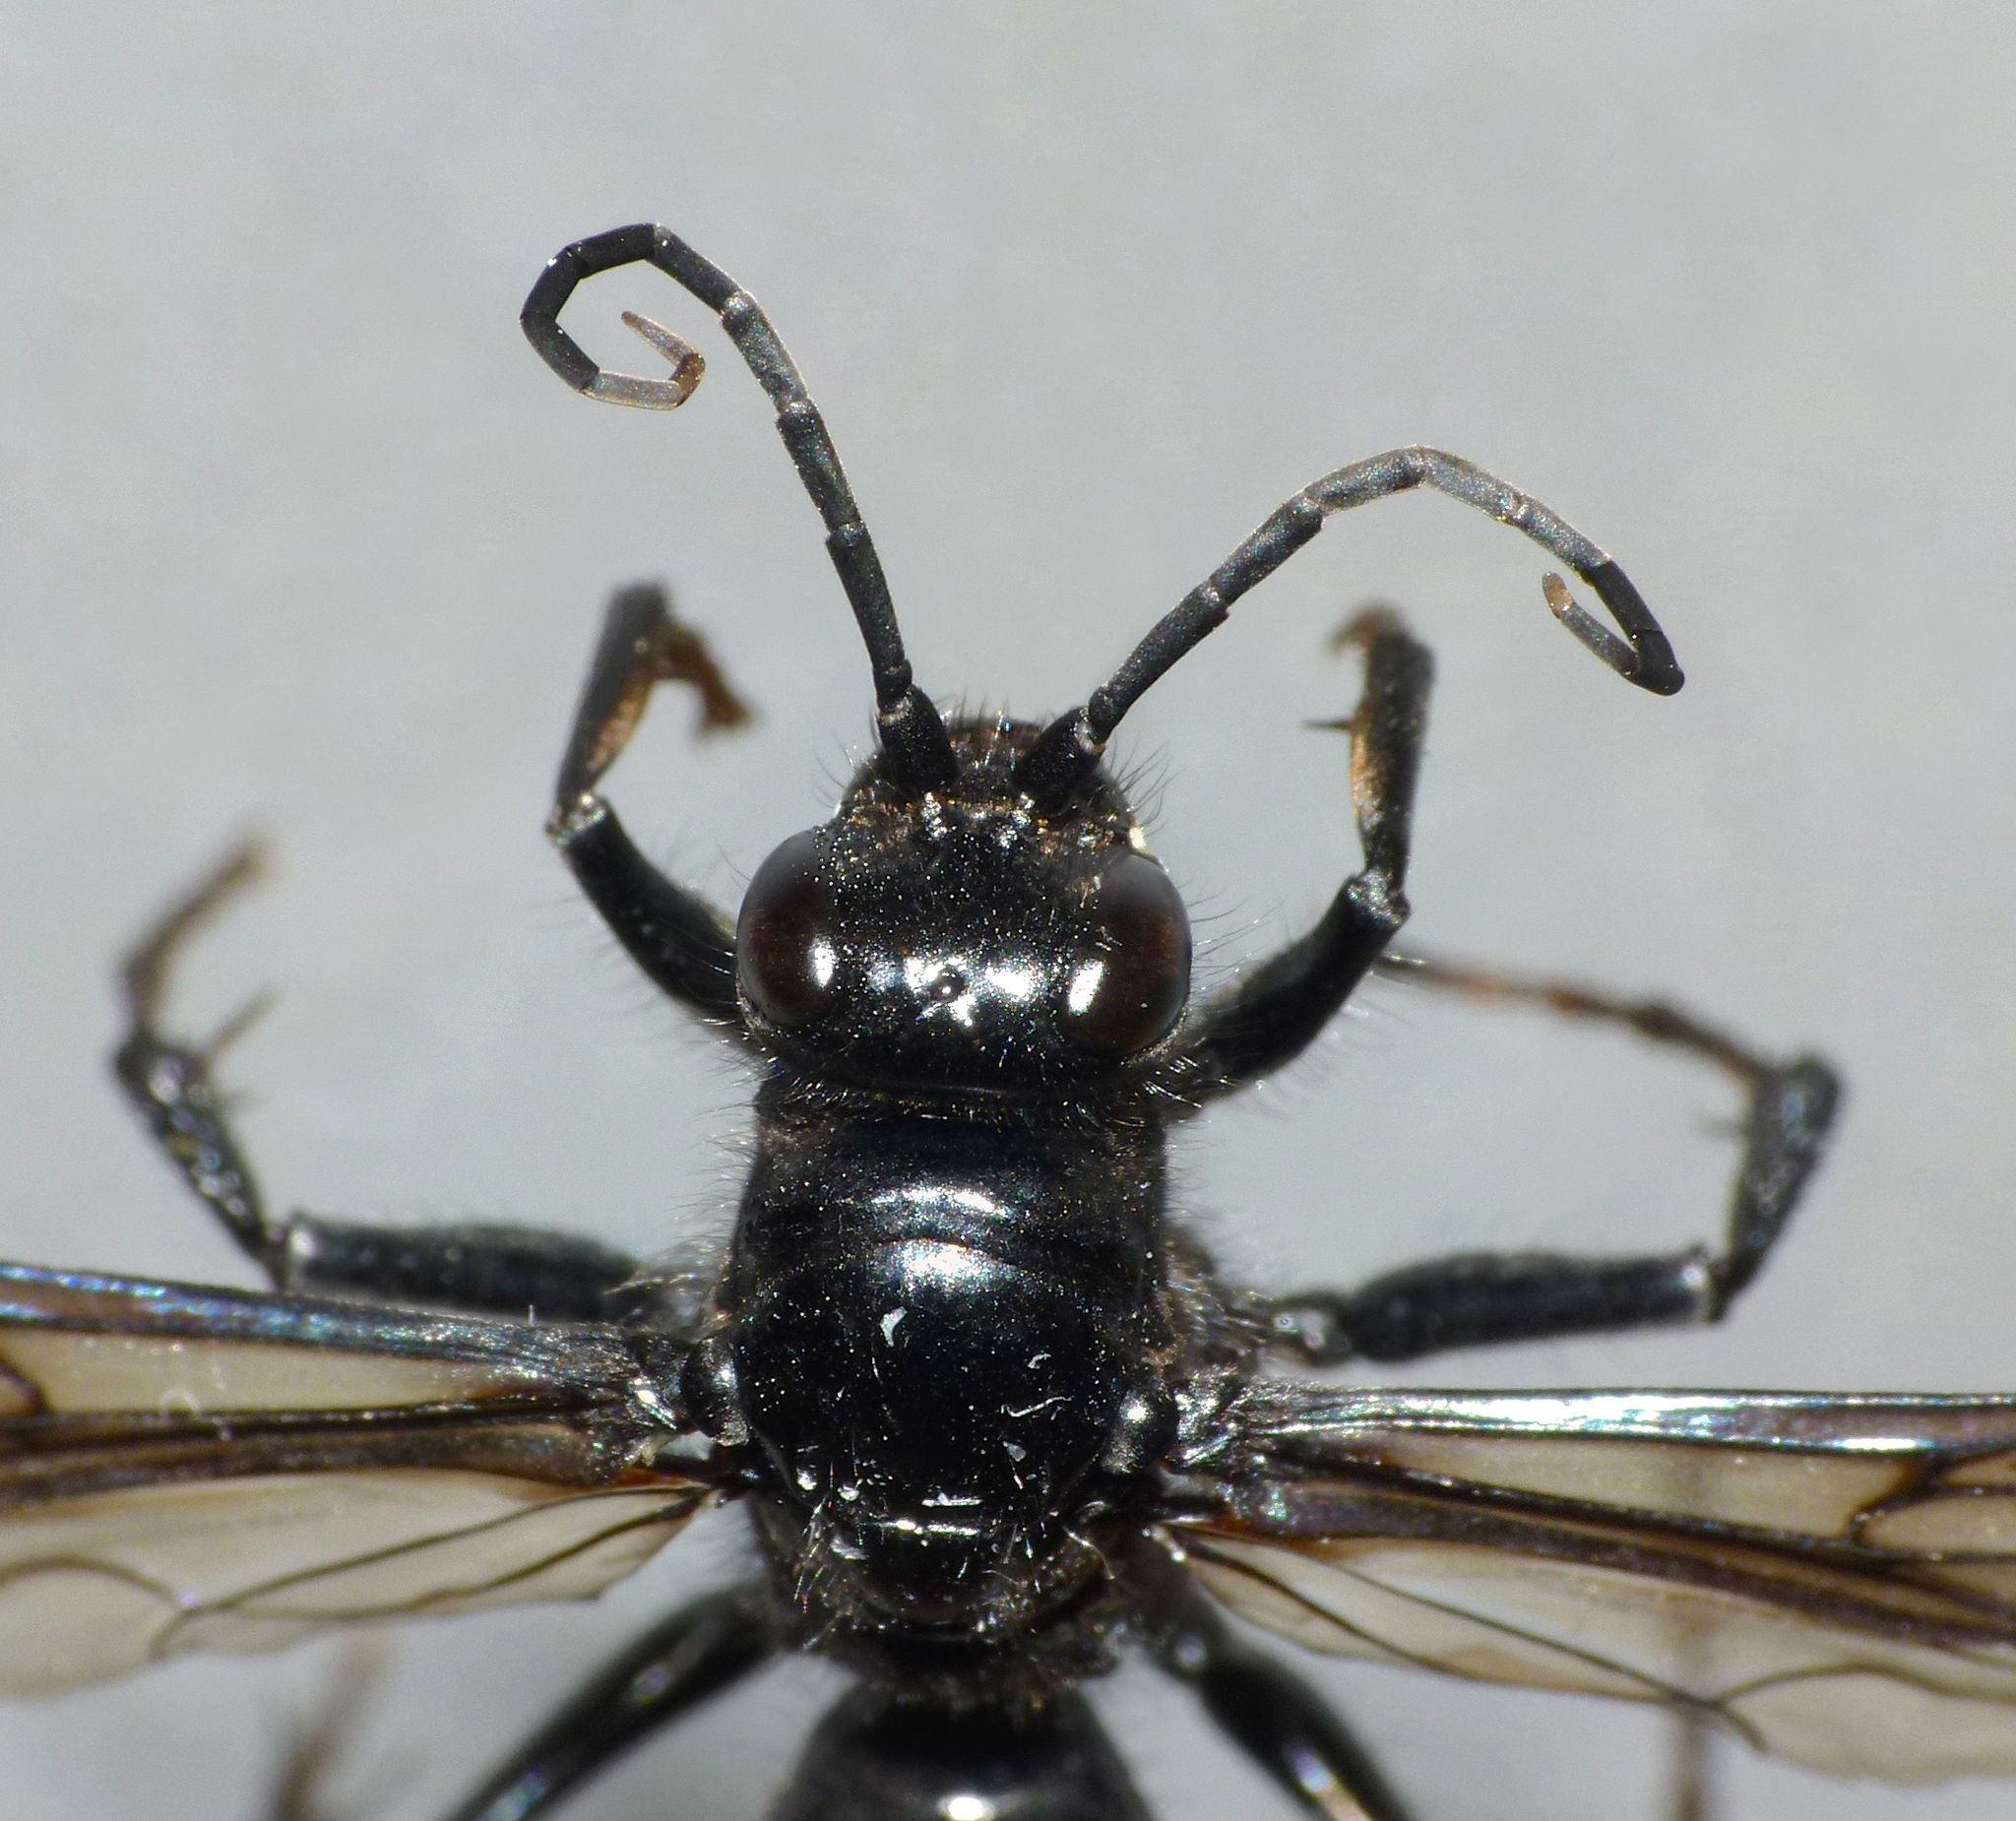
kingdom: Animalia
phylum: Arthropoda
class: Insecta
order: Hymenoptera
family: Pompilidae
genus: Priocnemis
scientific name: Priocnemis monachus
